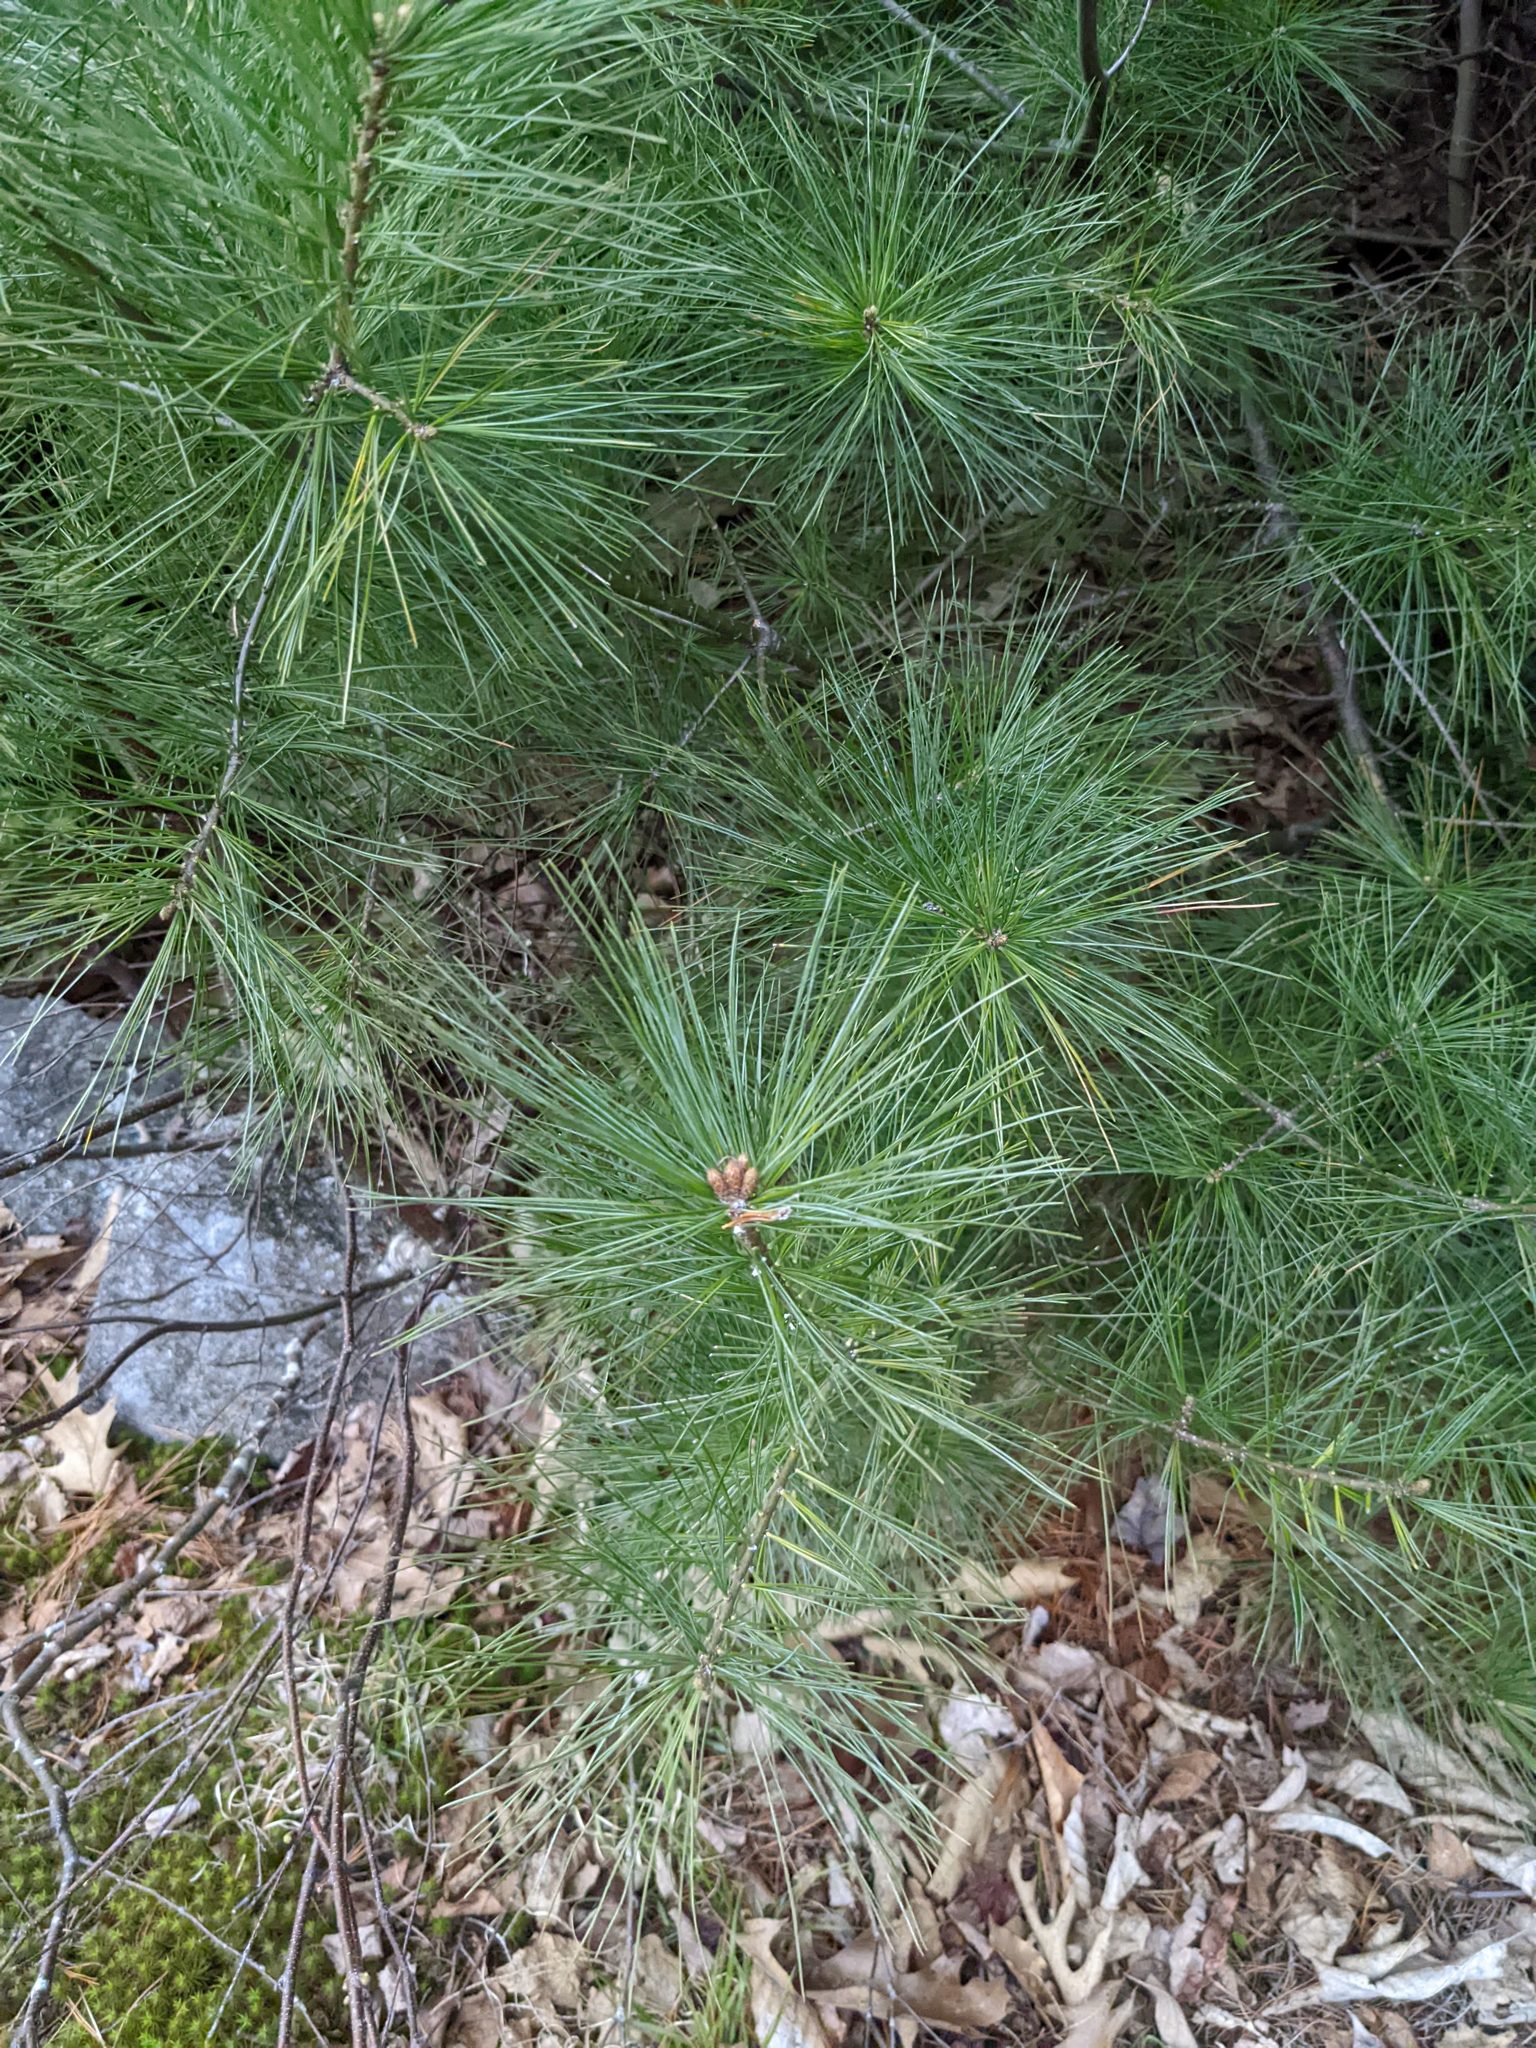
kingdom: Plantae
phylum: Tracheophyta
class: Pinopsida
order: Pinales
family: Pinaceae
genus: Pinus
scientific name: Pinus strobus
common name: Weymouth pine
